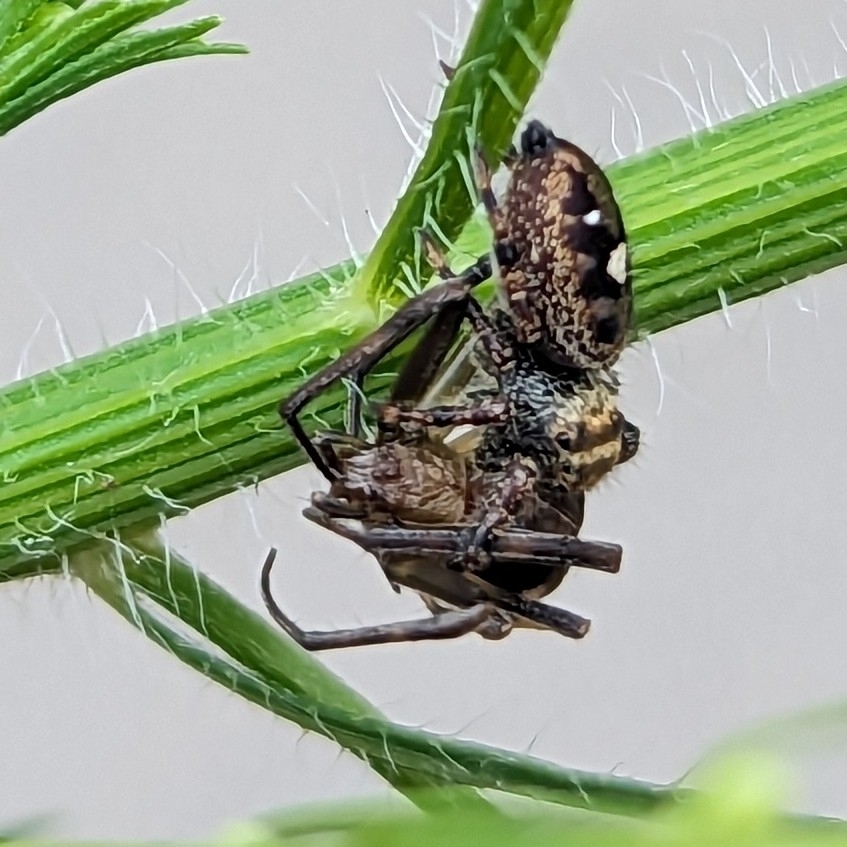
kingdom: Animalia
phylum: Arthropoda
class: Arachnida
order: Araneae
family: Araneidae
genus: Acacesia
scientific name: Acacesia hamata
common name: Orb weavers
